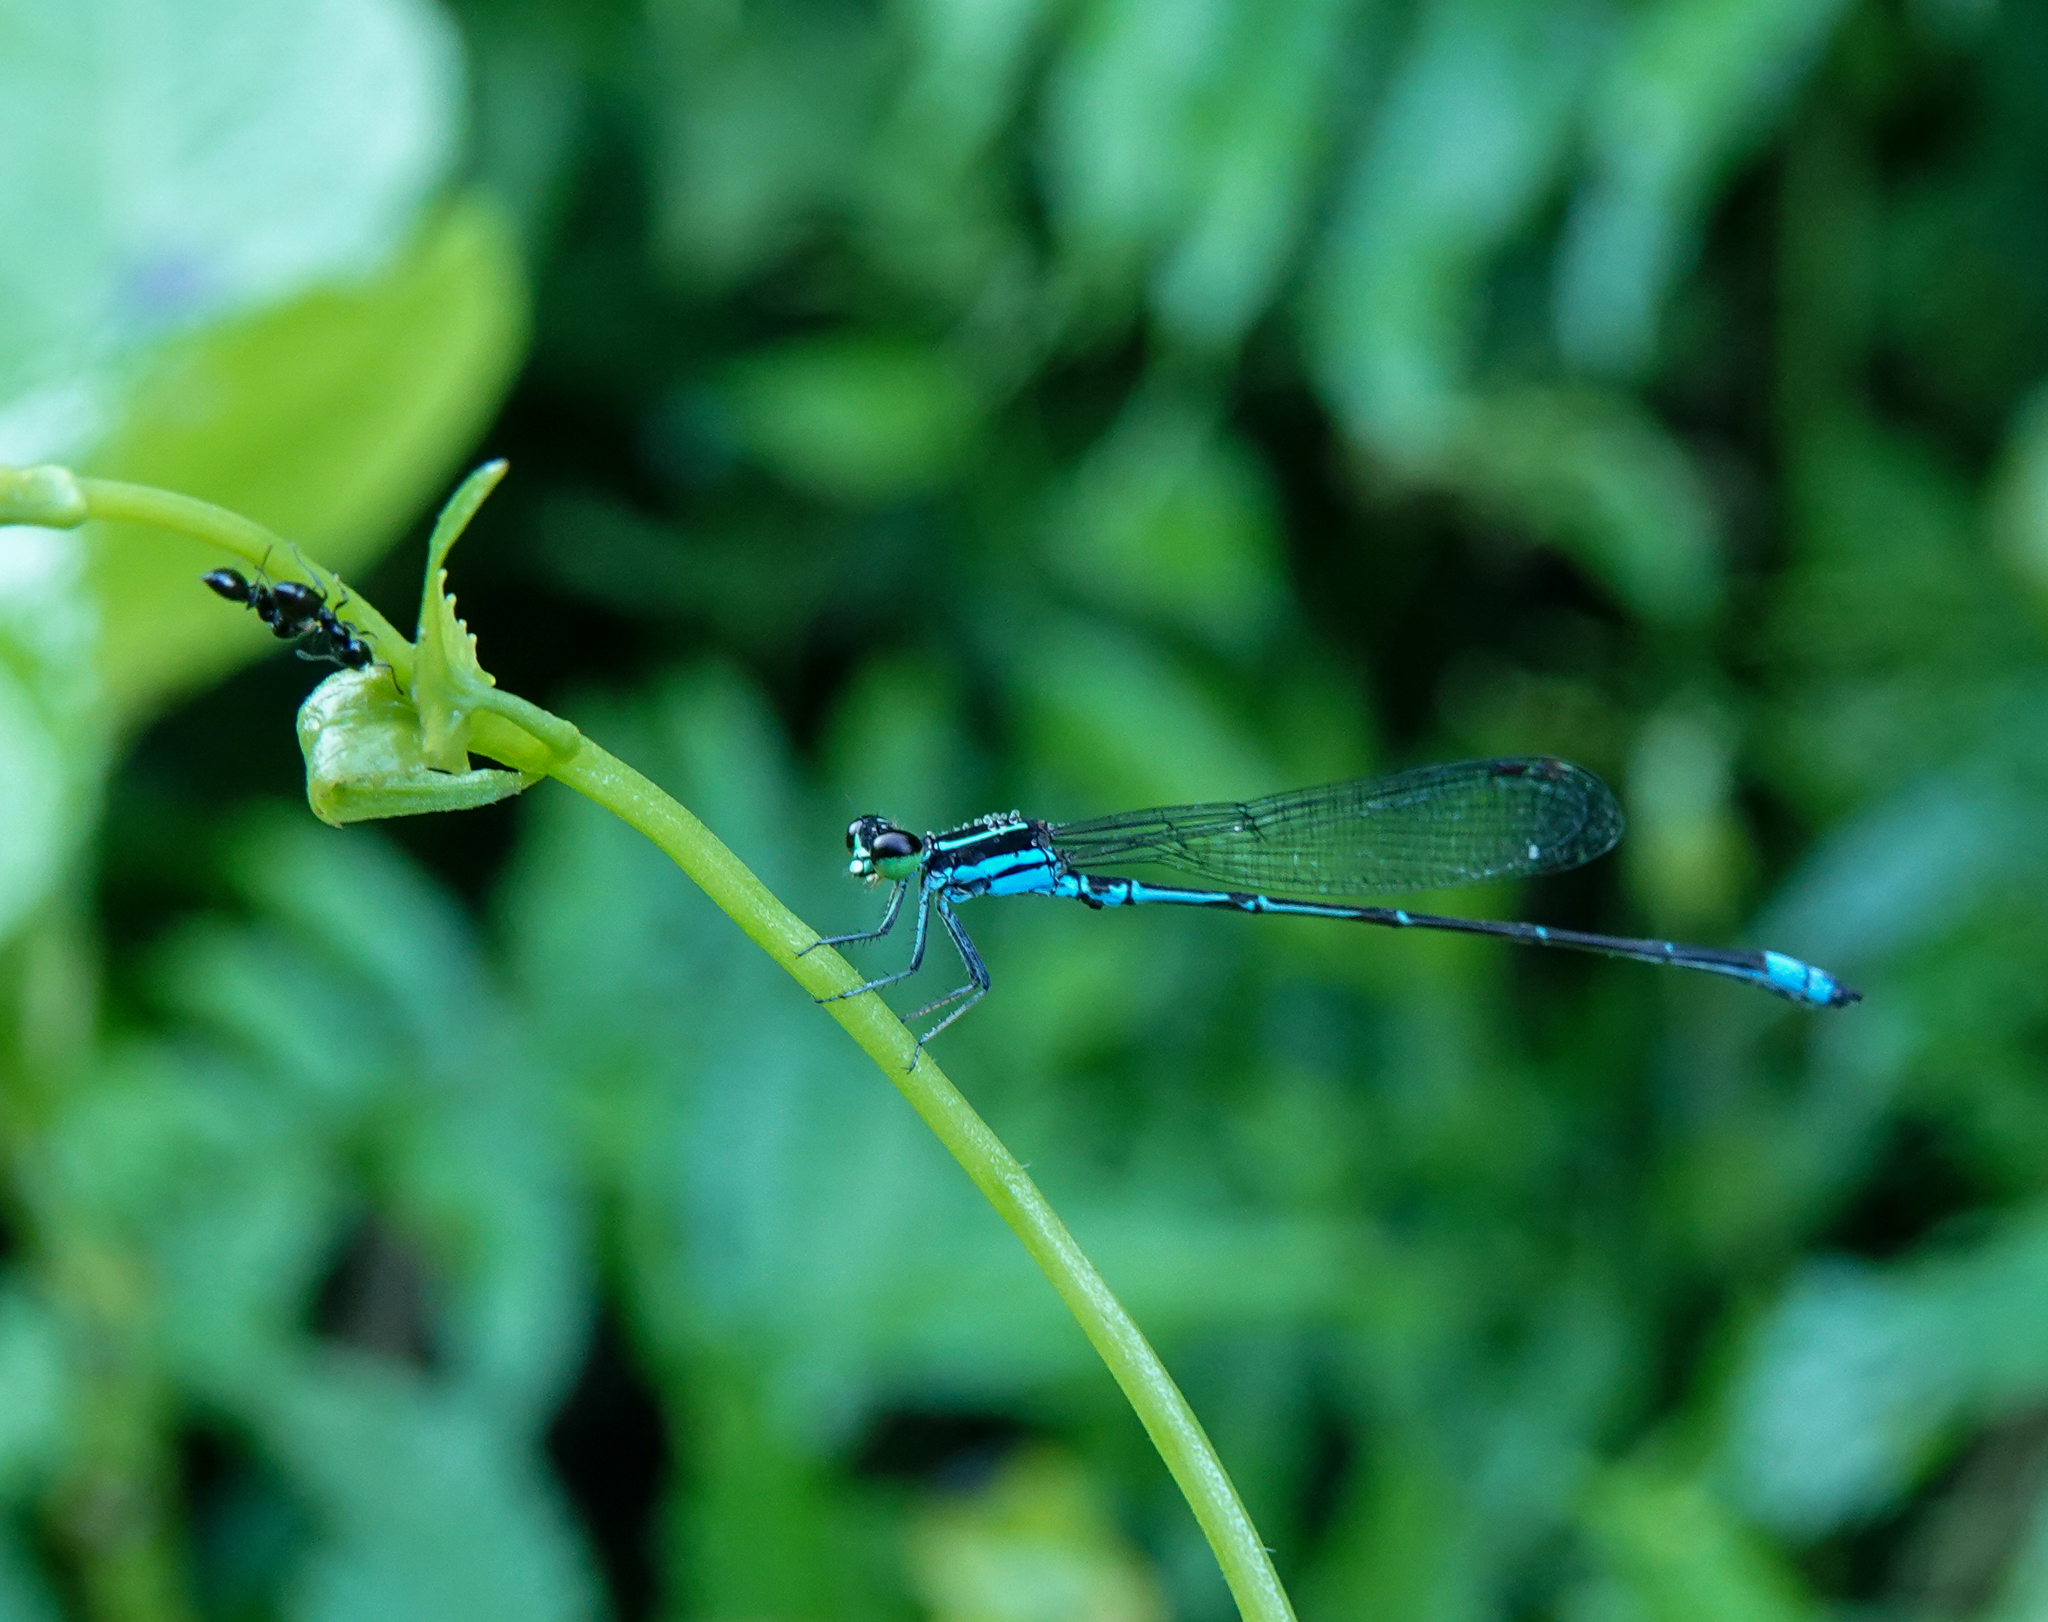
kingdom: Animalia
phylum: Arthropoda
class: Insecta
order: Odonata
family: Coenagrionidae
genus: Argiocnemis
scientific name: Argiocnemis rubescens
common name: Red-tipped shadefly
